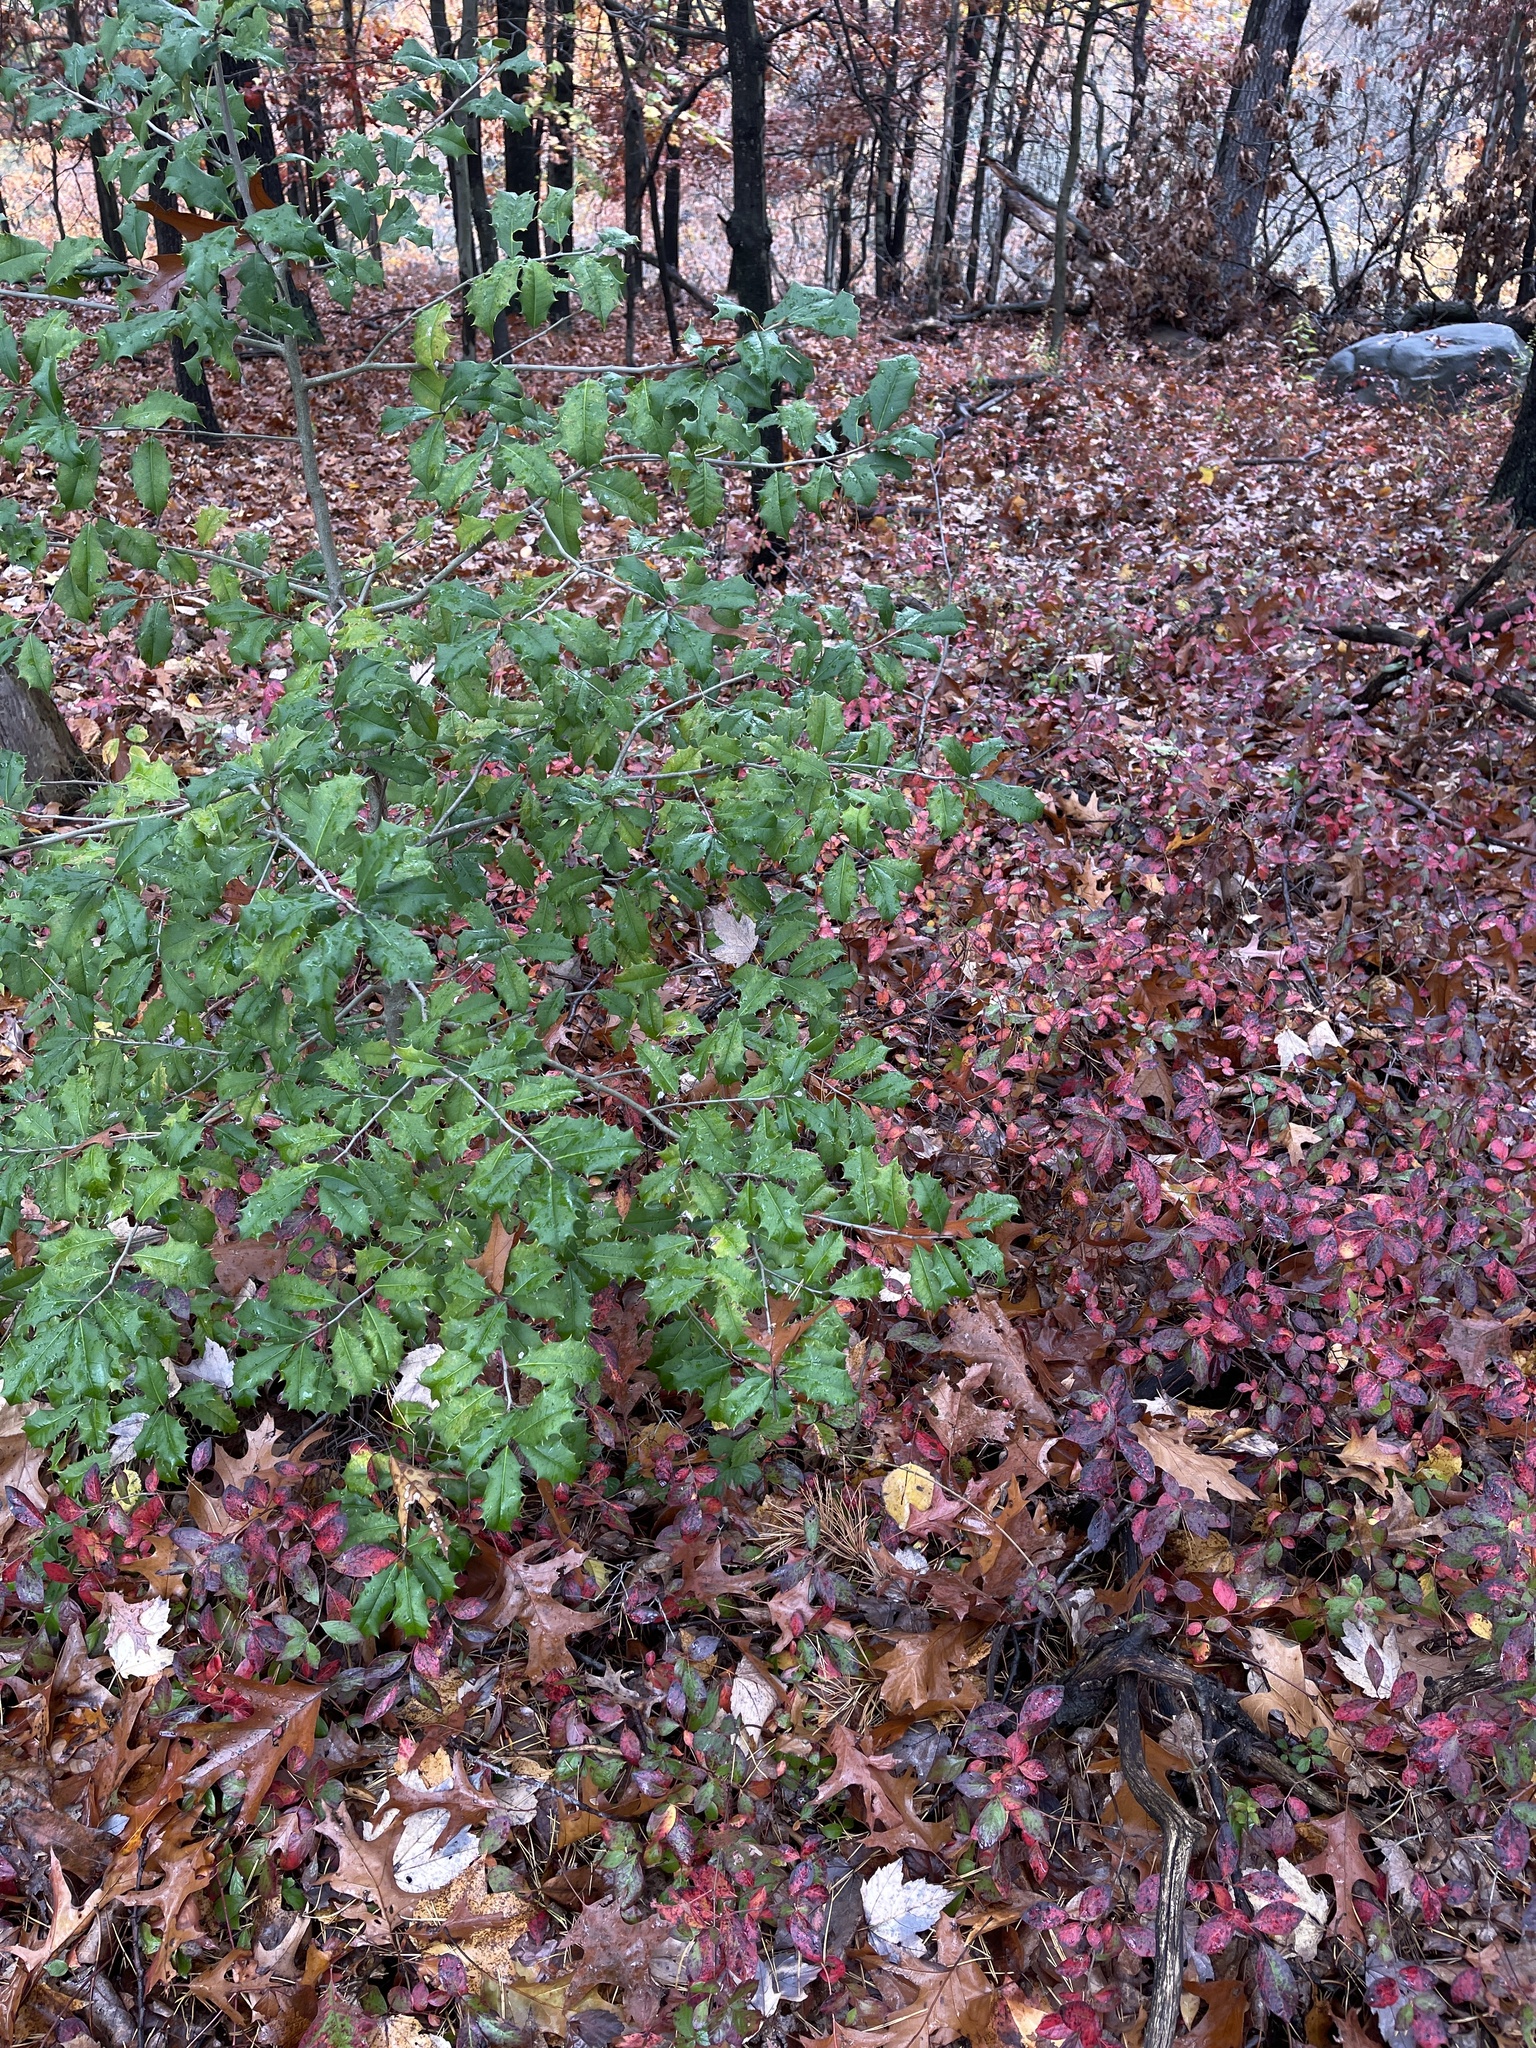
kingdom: Plantae
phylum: Tracheophyta
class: Magnoliopsida
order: Aquifoliales
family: Aquifoliaceae
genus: Ilex
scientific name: Ilex opaca
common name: American holly
